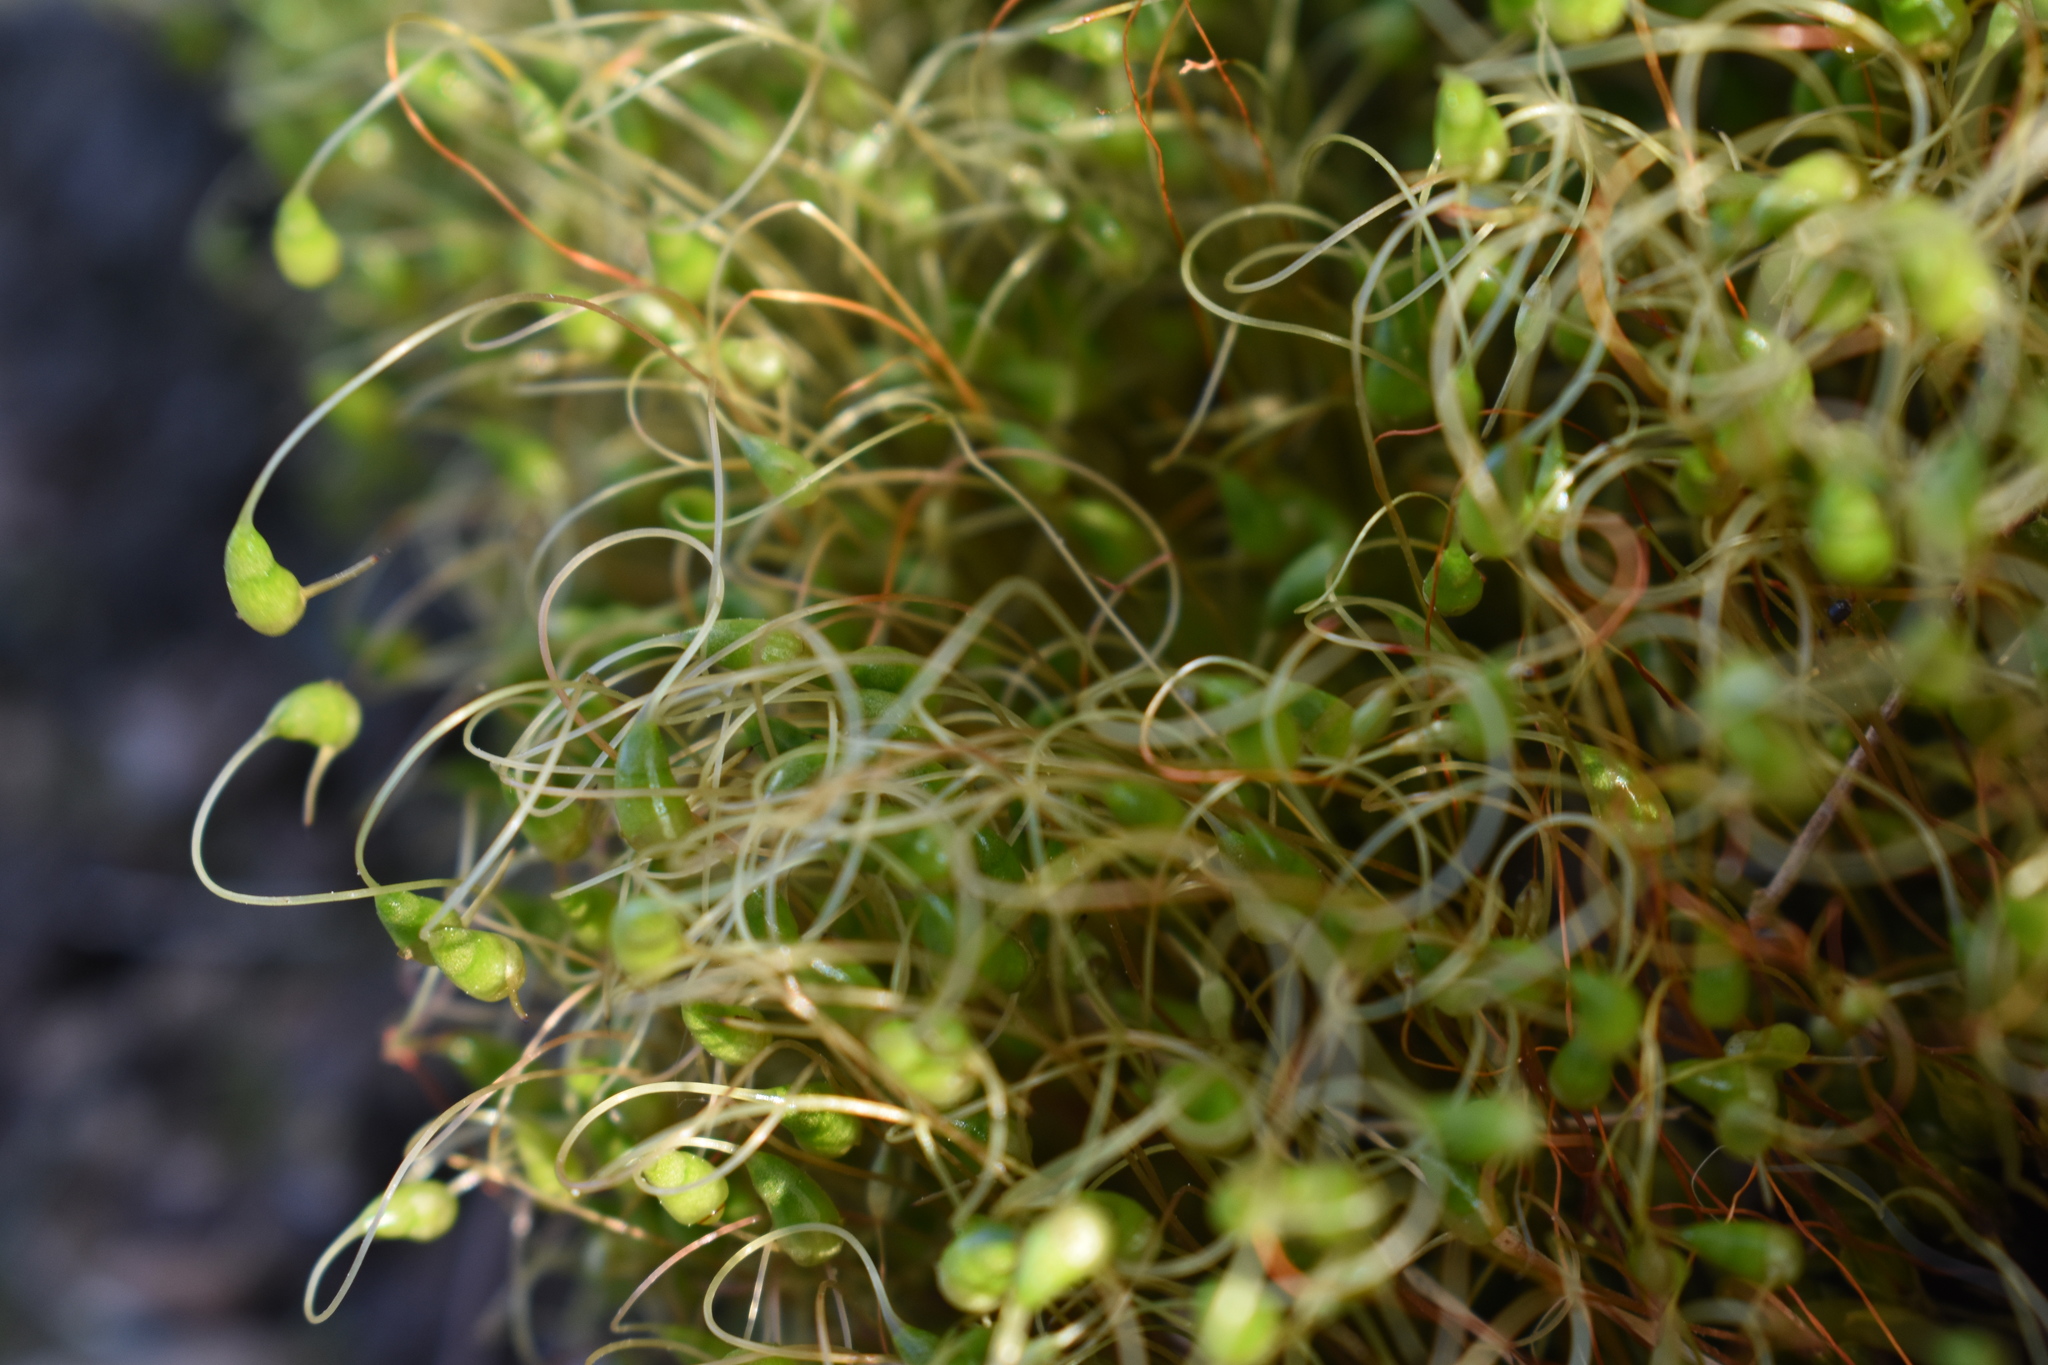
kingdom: Plantae
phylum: Bryophyta
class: Bryopsida
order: Funariales
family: Funariaceae
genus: Funaria
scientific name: Funaria hygrometrica
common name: Common cord moss
